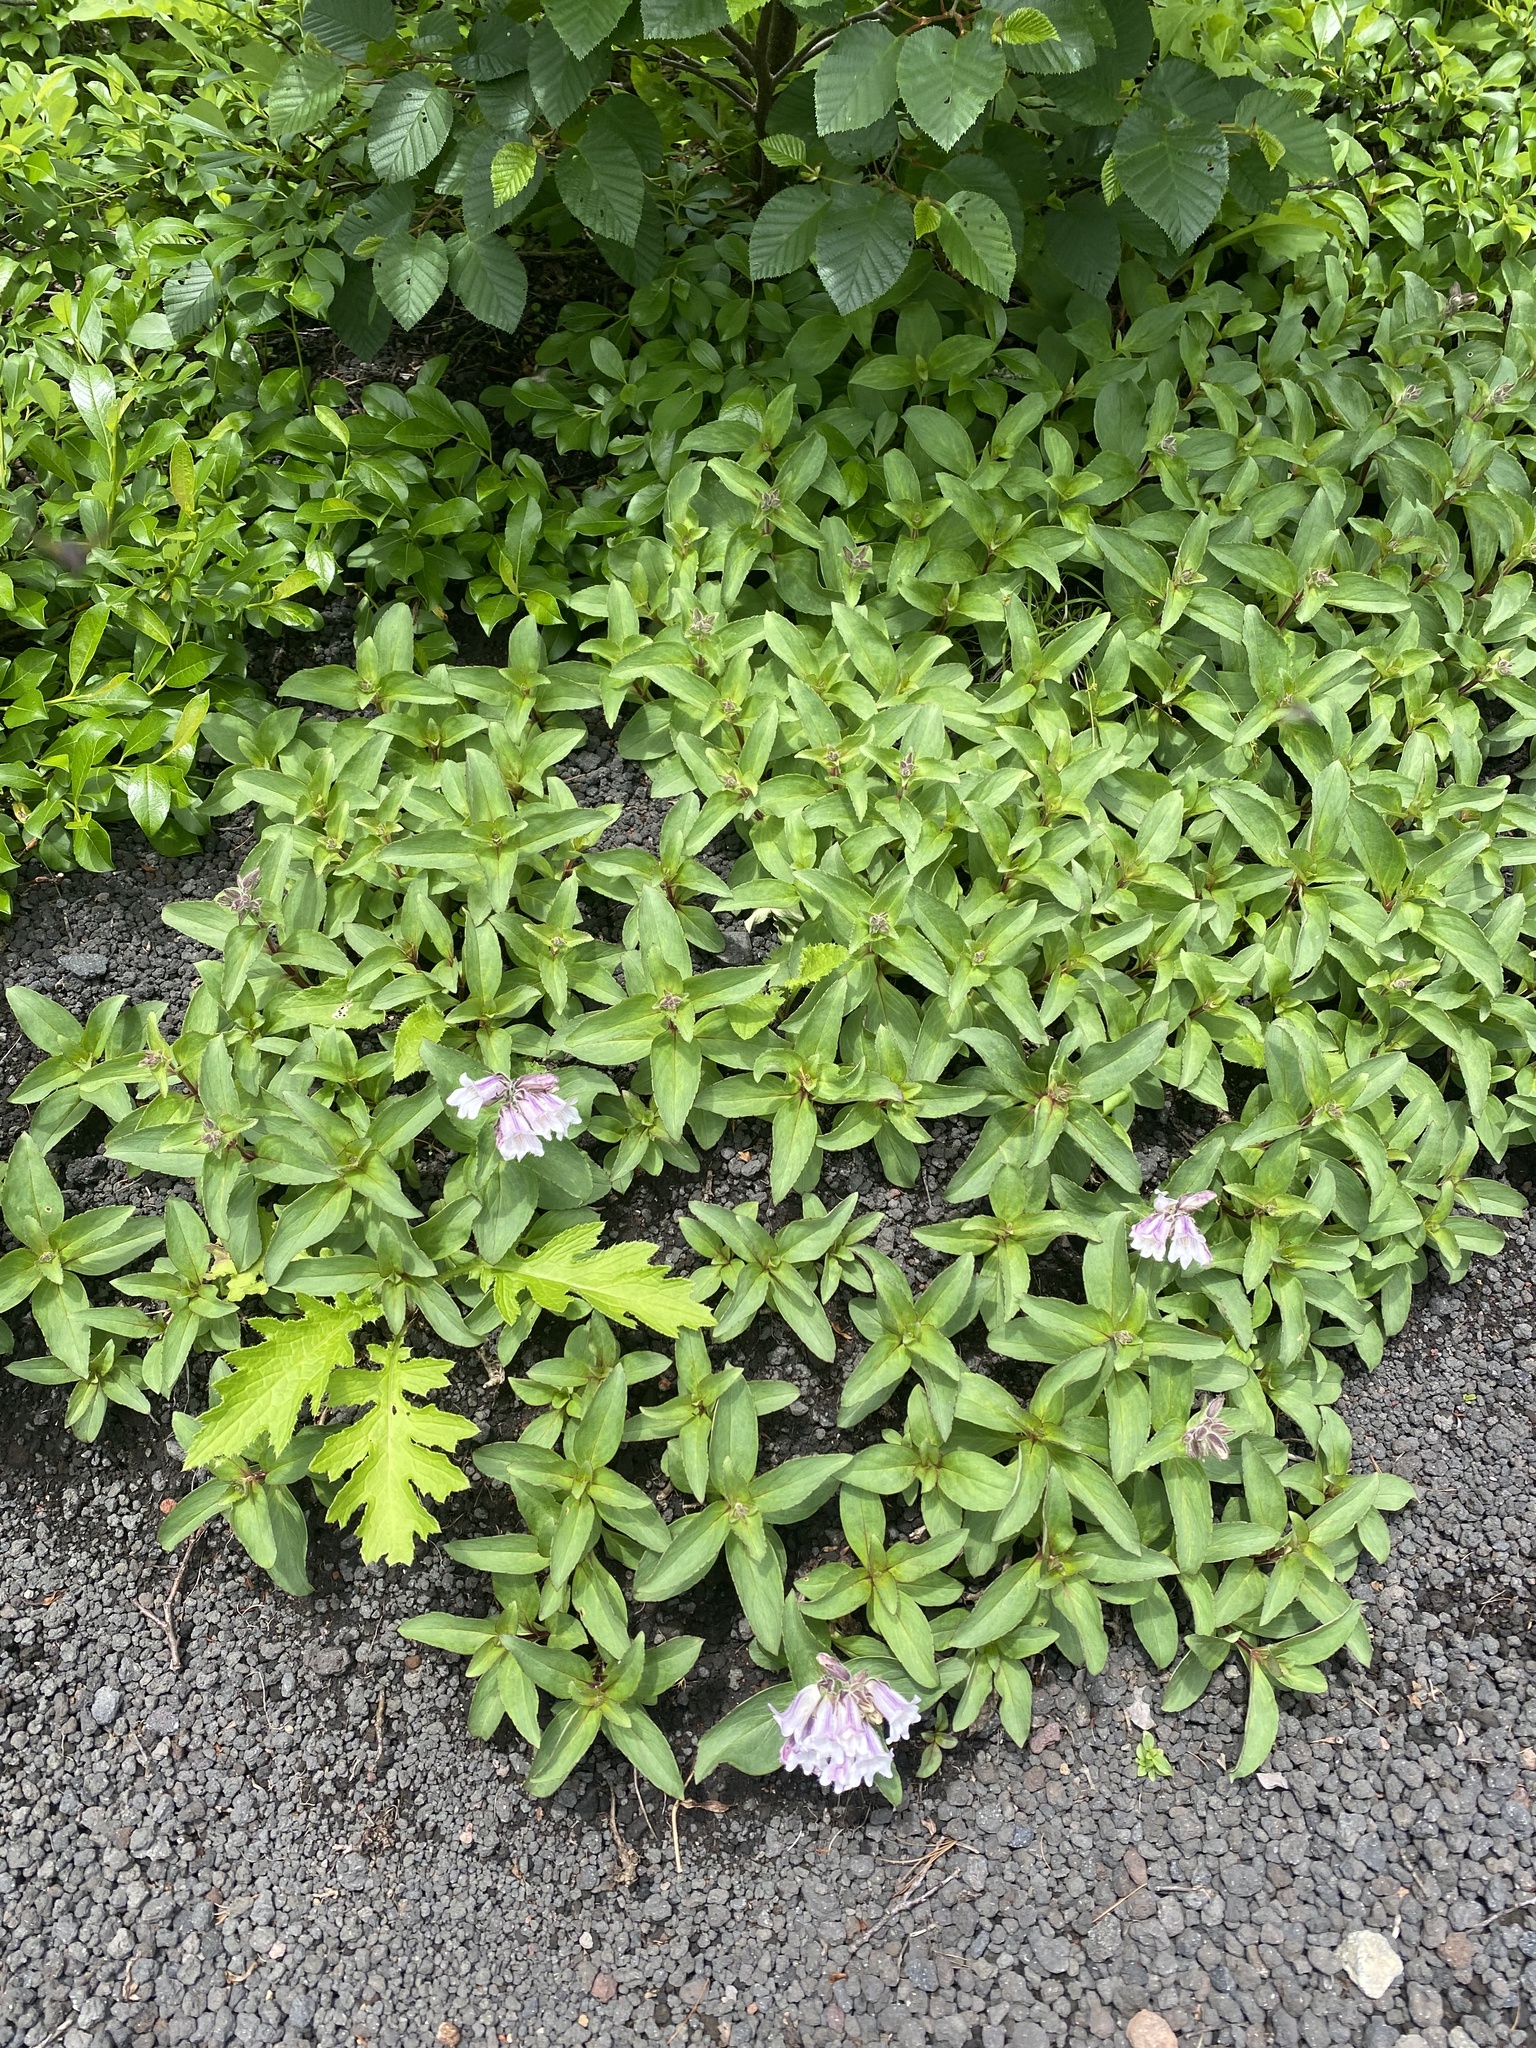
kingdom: Plantae
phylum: Tracheophyta
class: Magnoliopsida
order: Lamiales
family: Plantaginaceae
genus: Pennellianthus
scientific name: Pennellianthus frutescens
